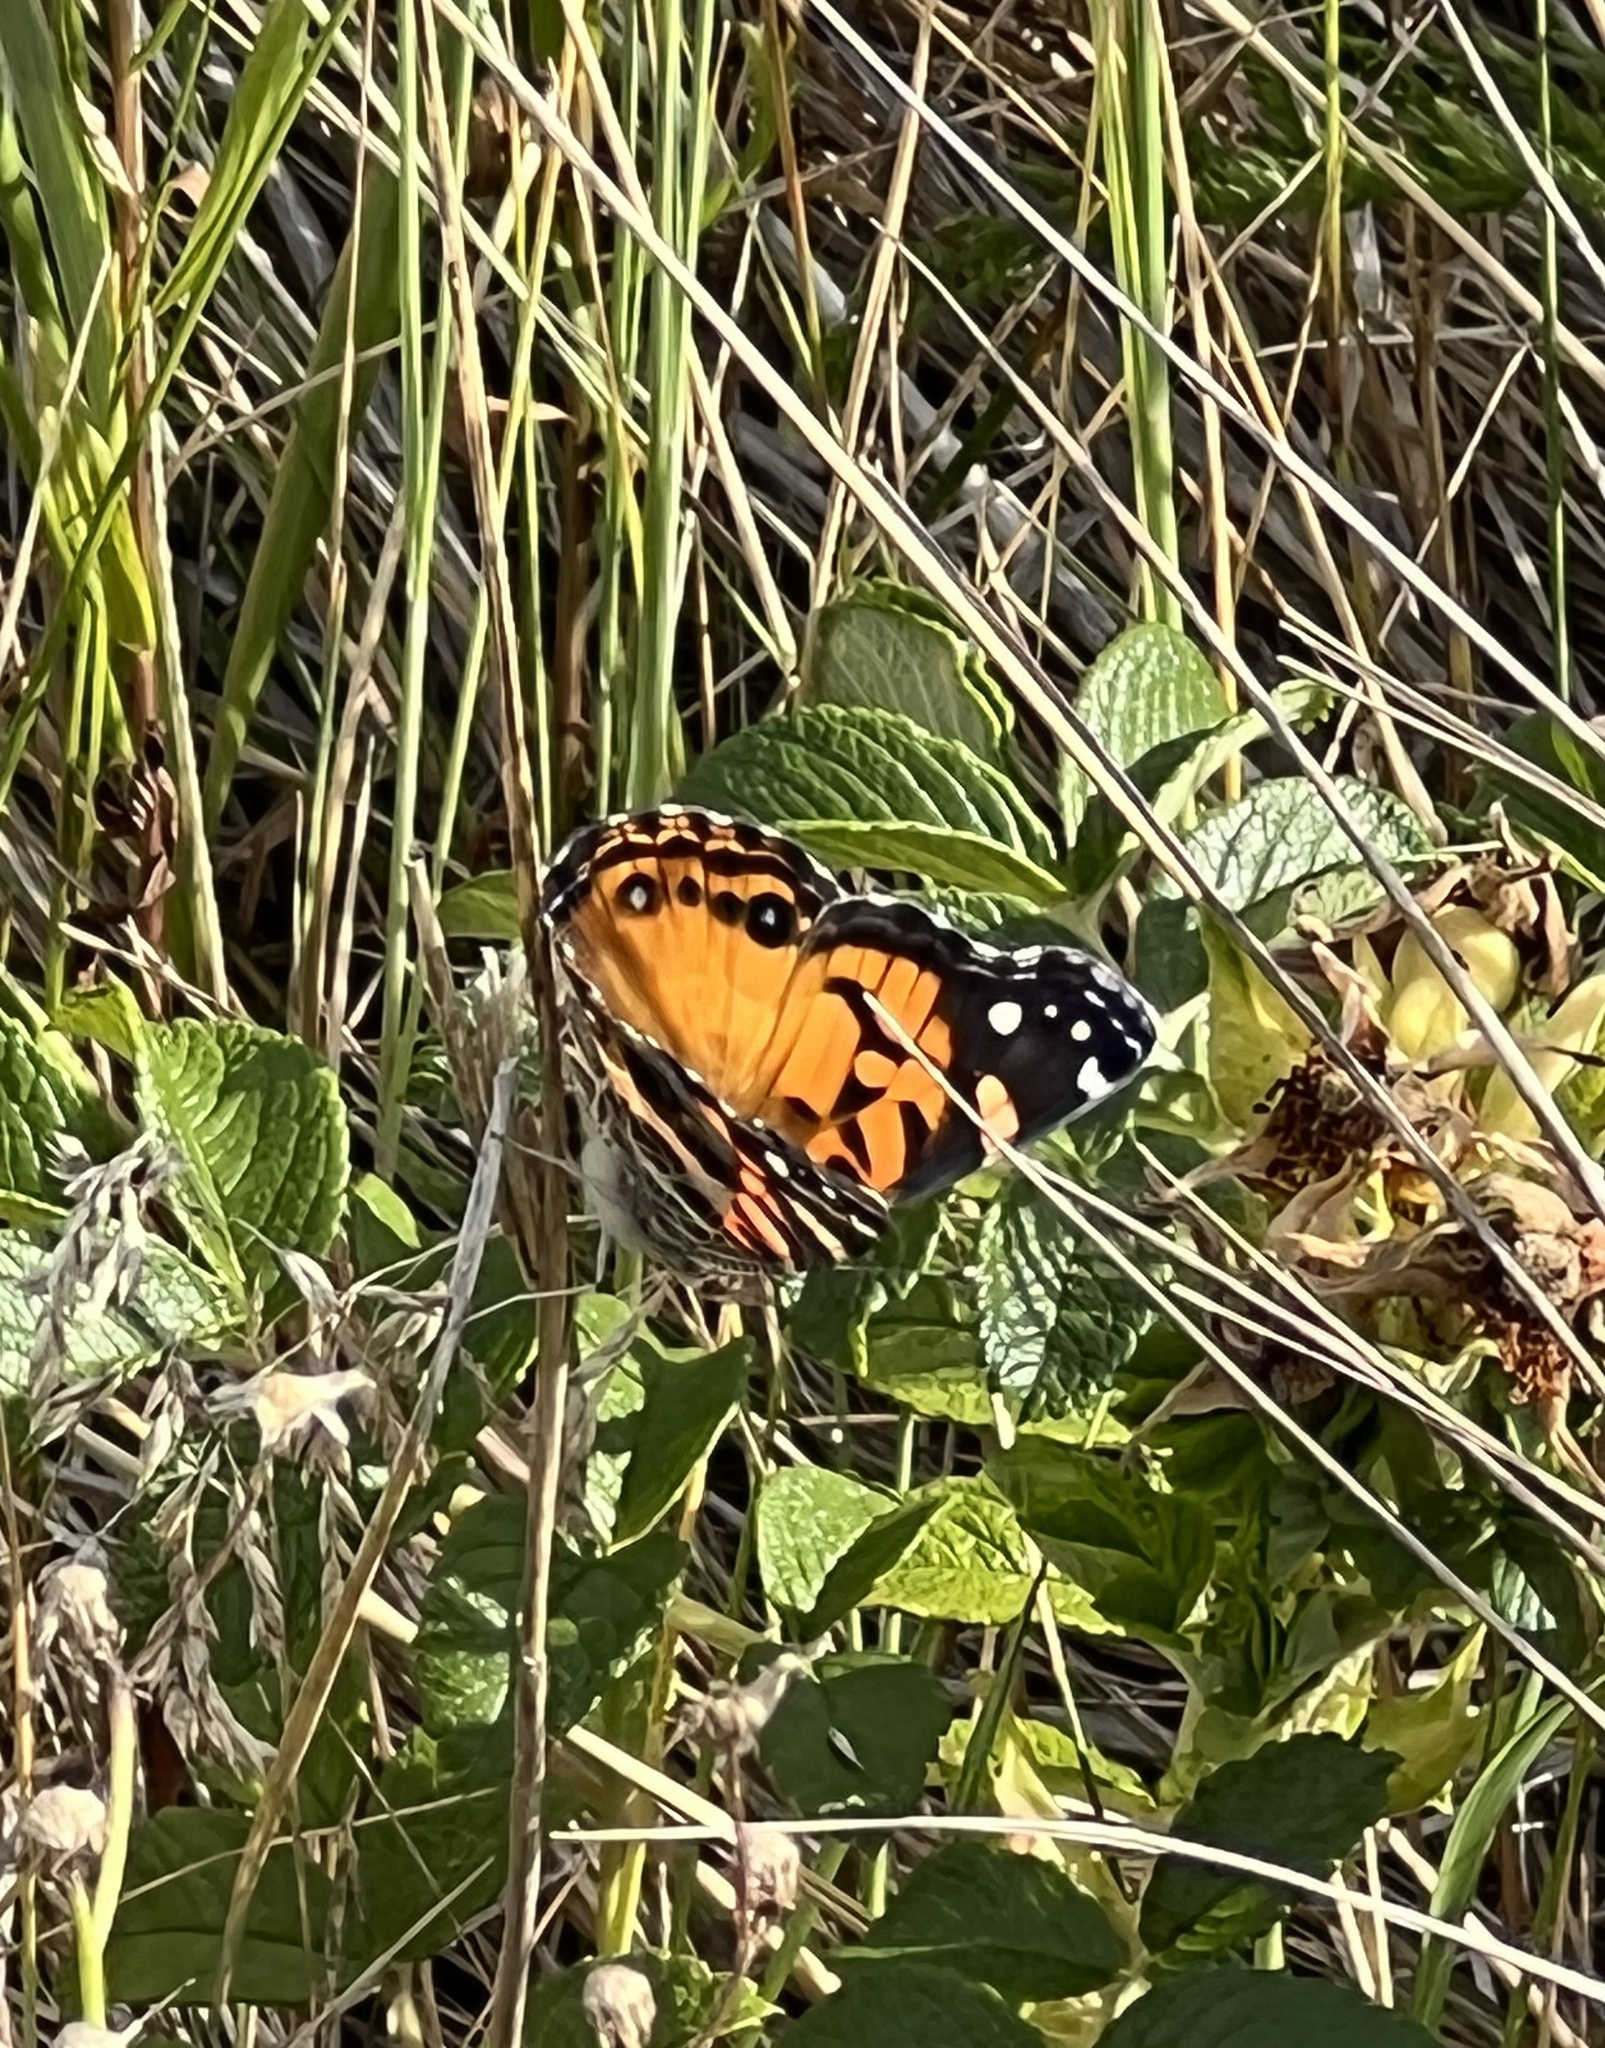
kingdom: Animalia
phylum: Arthropoda
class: Insecta
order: Lepidoptera
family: Nymphalidae
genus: Vanessa
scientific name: Vanessa virginiensis
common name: American lady
